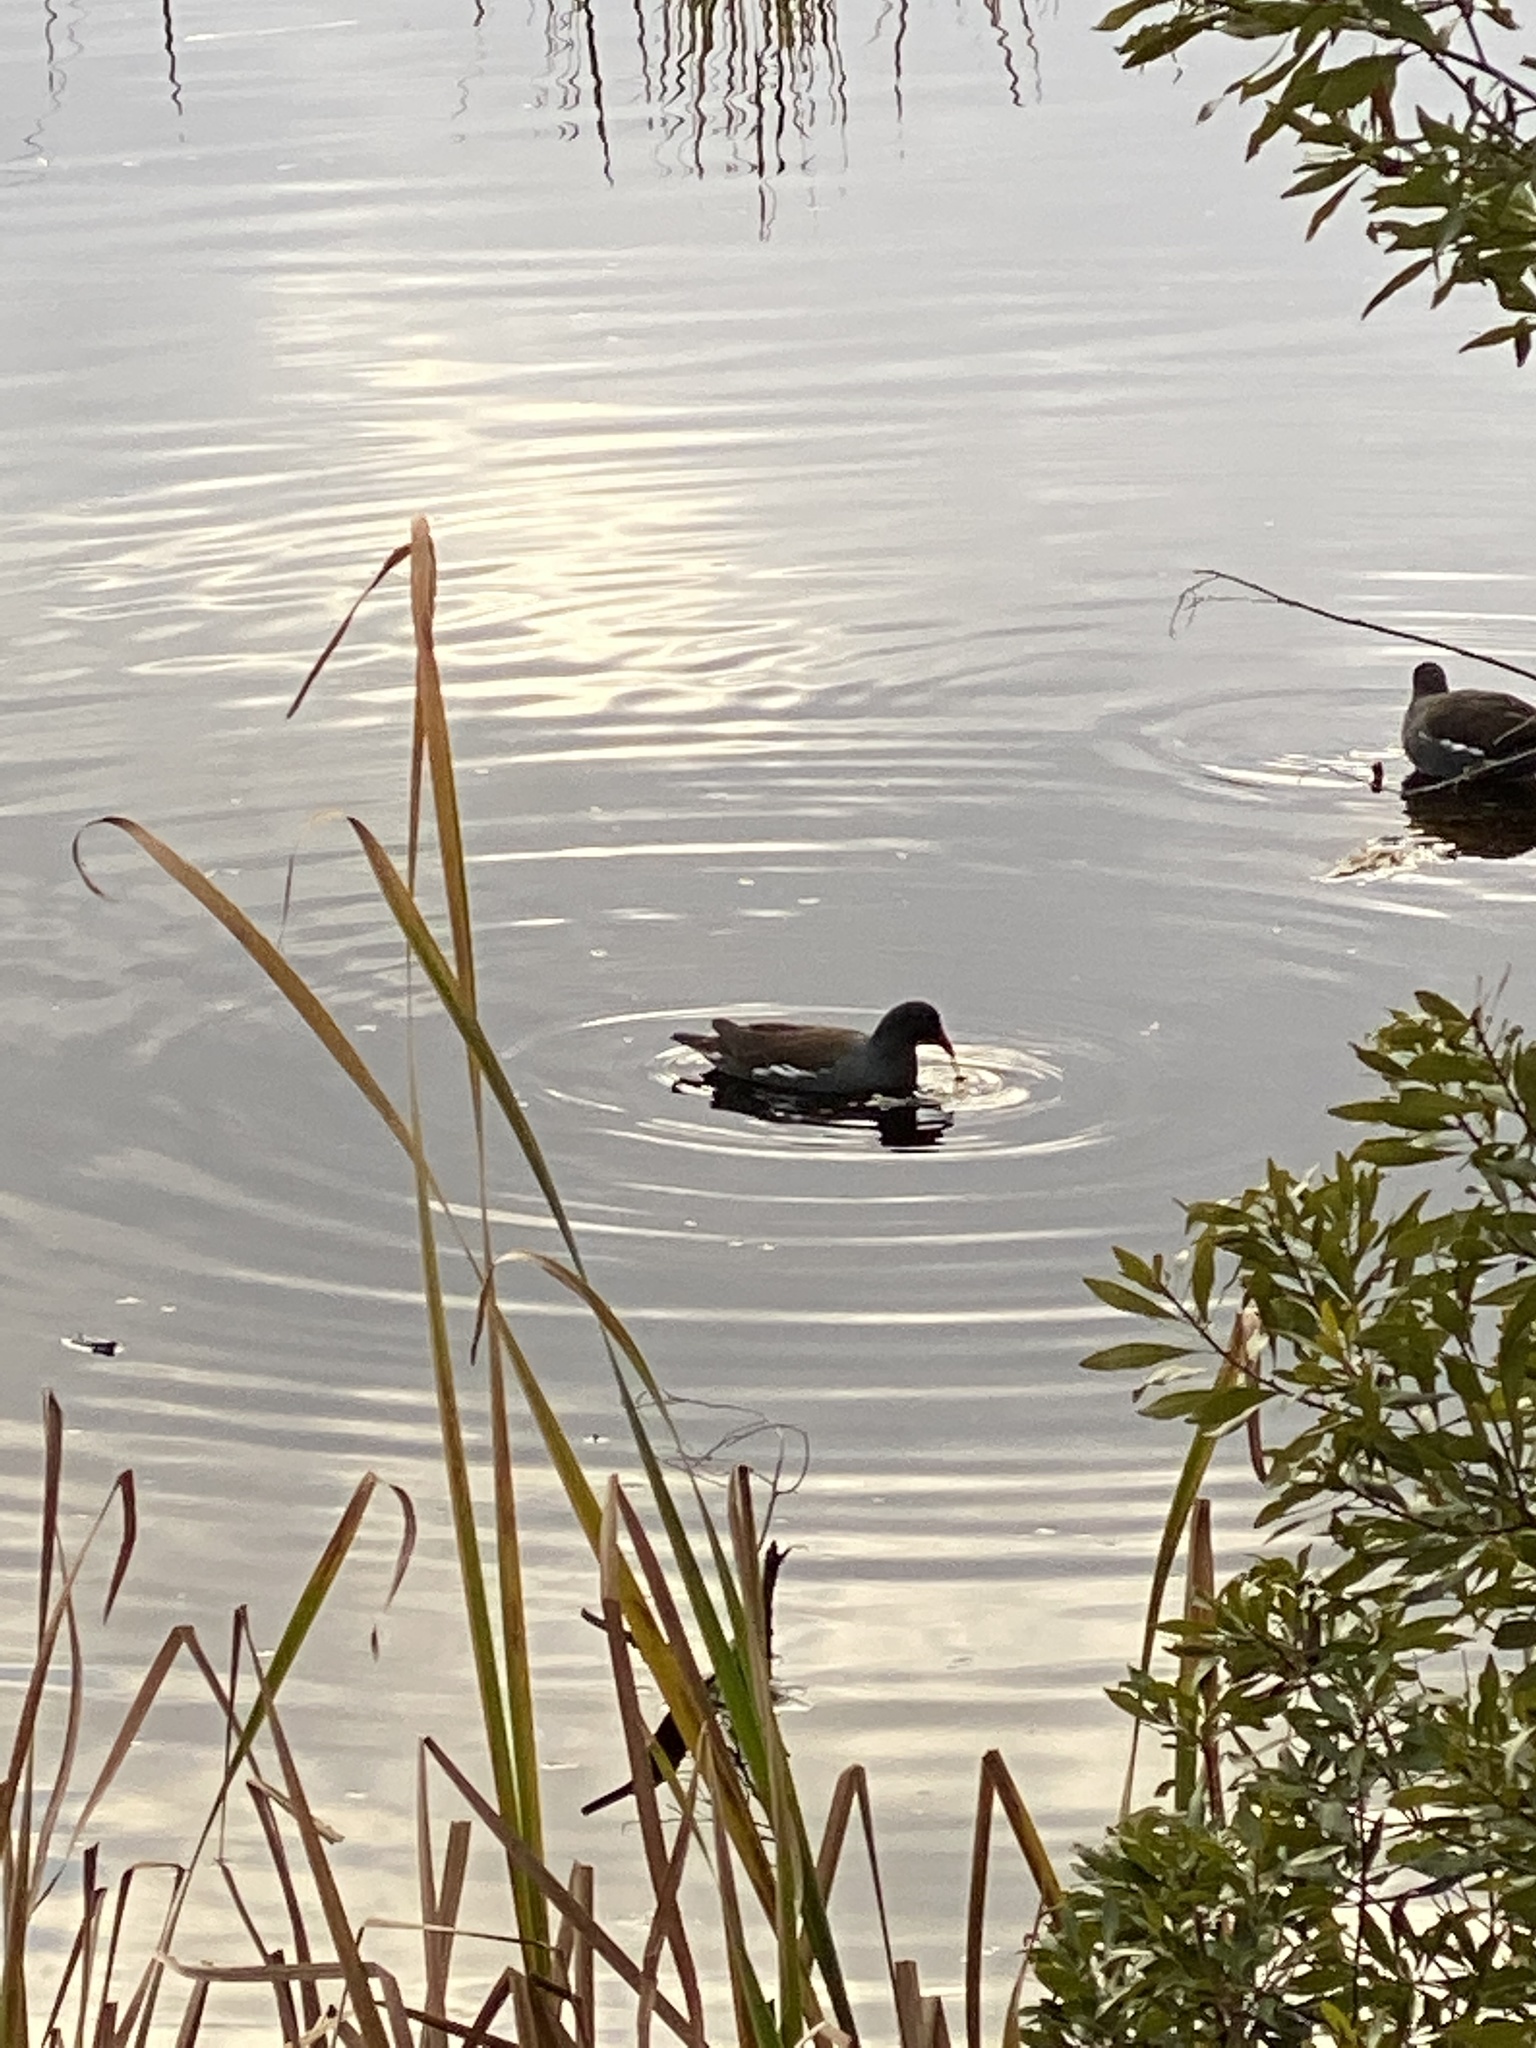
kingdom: Animalia
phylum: Chordata
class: Aves
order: Gruiformes
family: Rallidae
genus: Gallinula
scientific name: Gallinula chloropus
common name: Common moorhen
